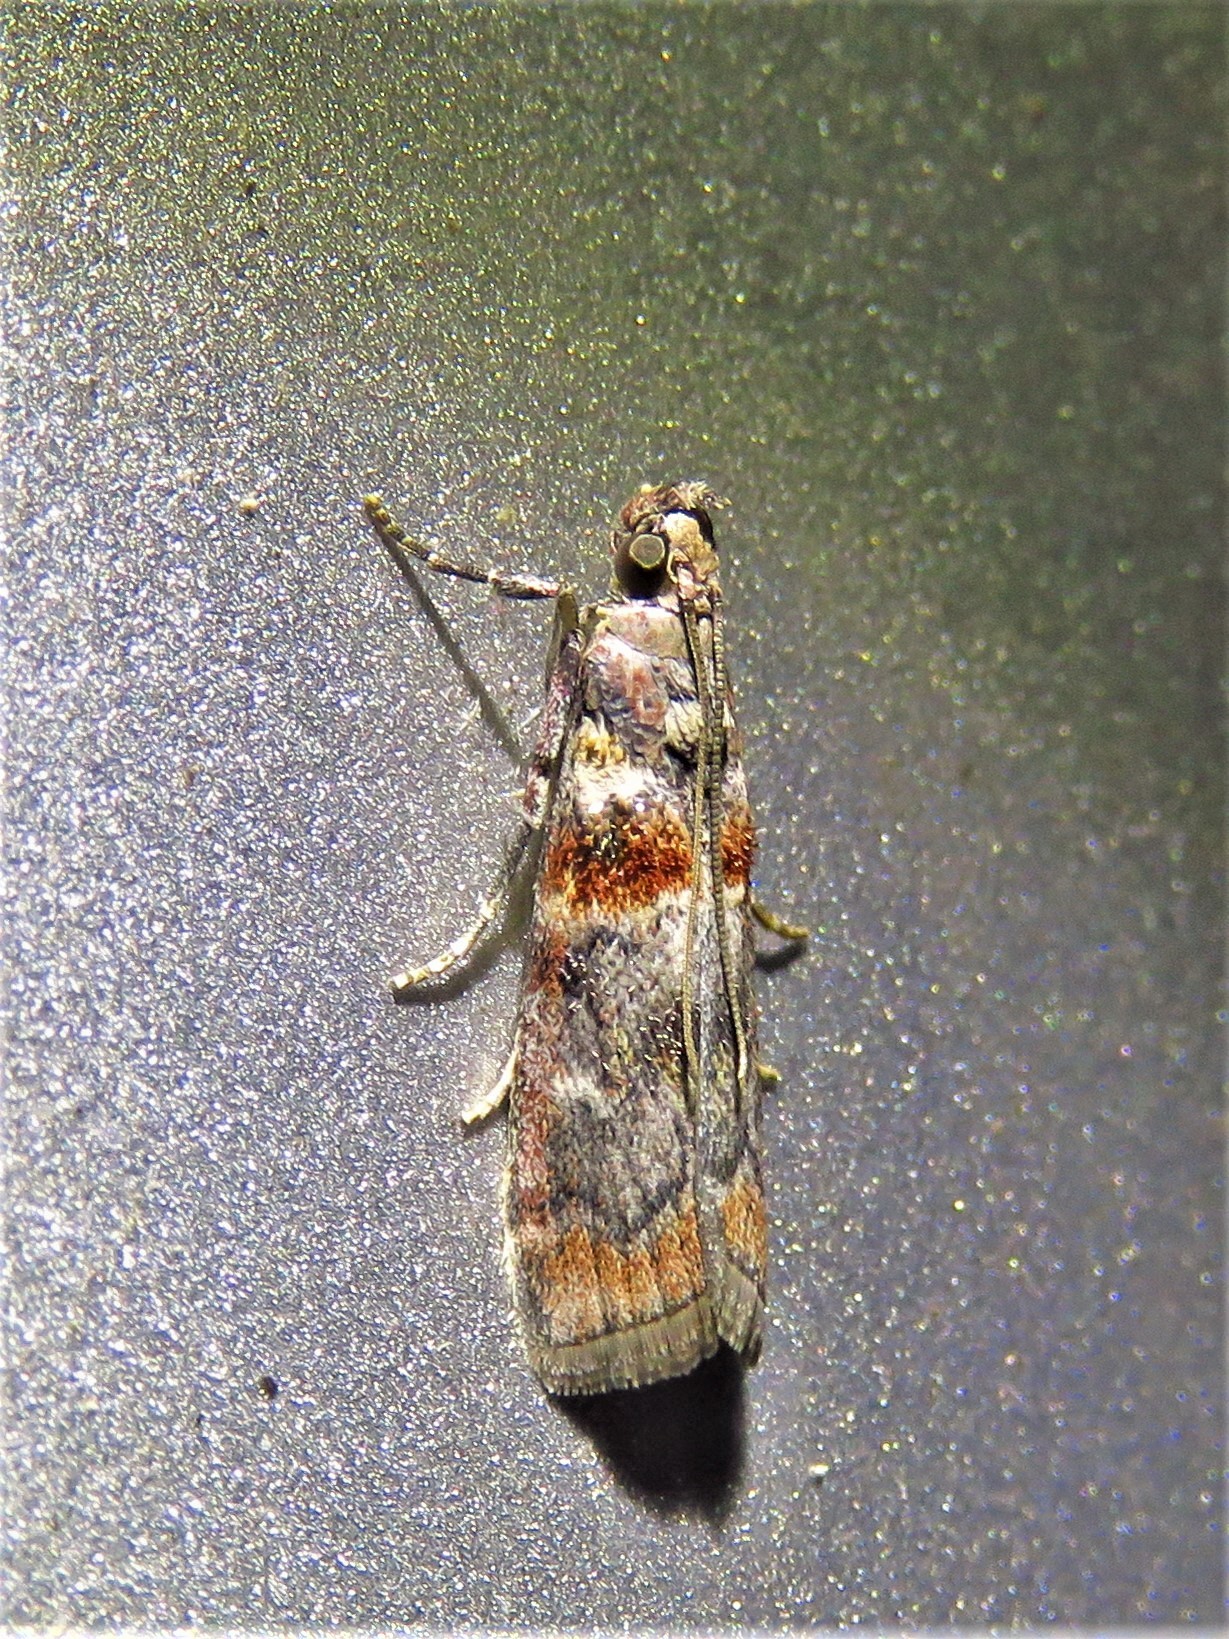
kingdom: Animalia
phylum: Arthropoda
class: Insecta
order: Lepidoptera
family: Pyralidae
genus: Dioryctria
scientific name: Dioryctria caesirufella
